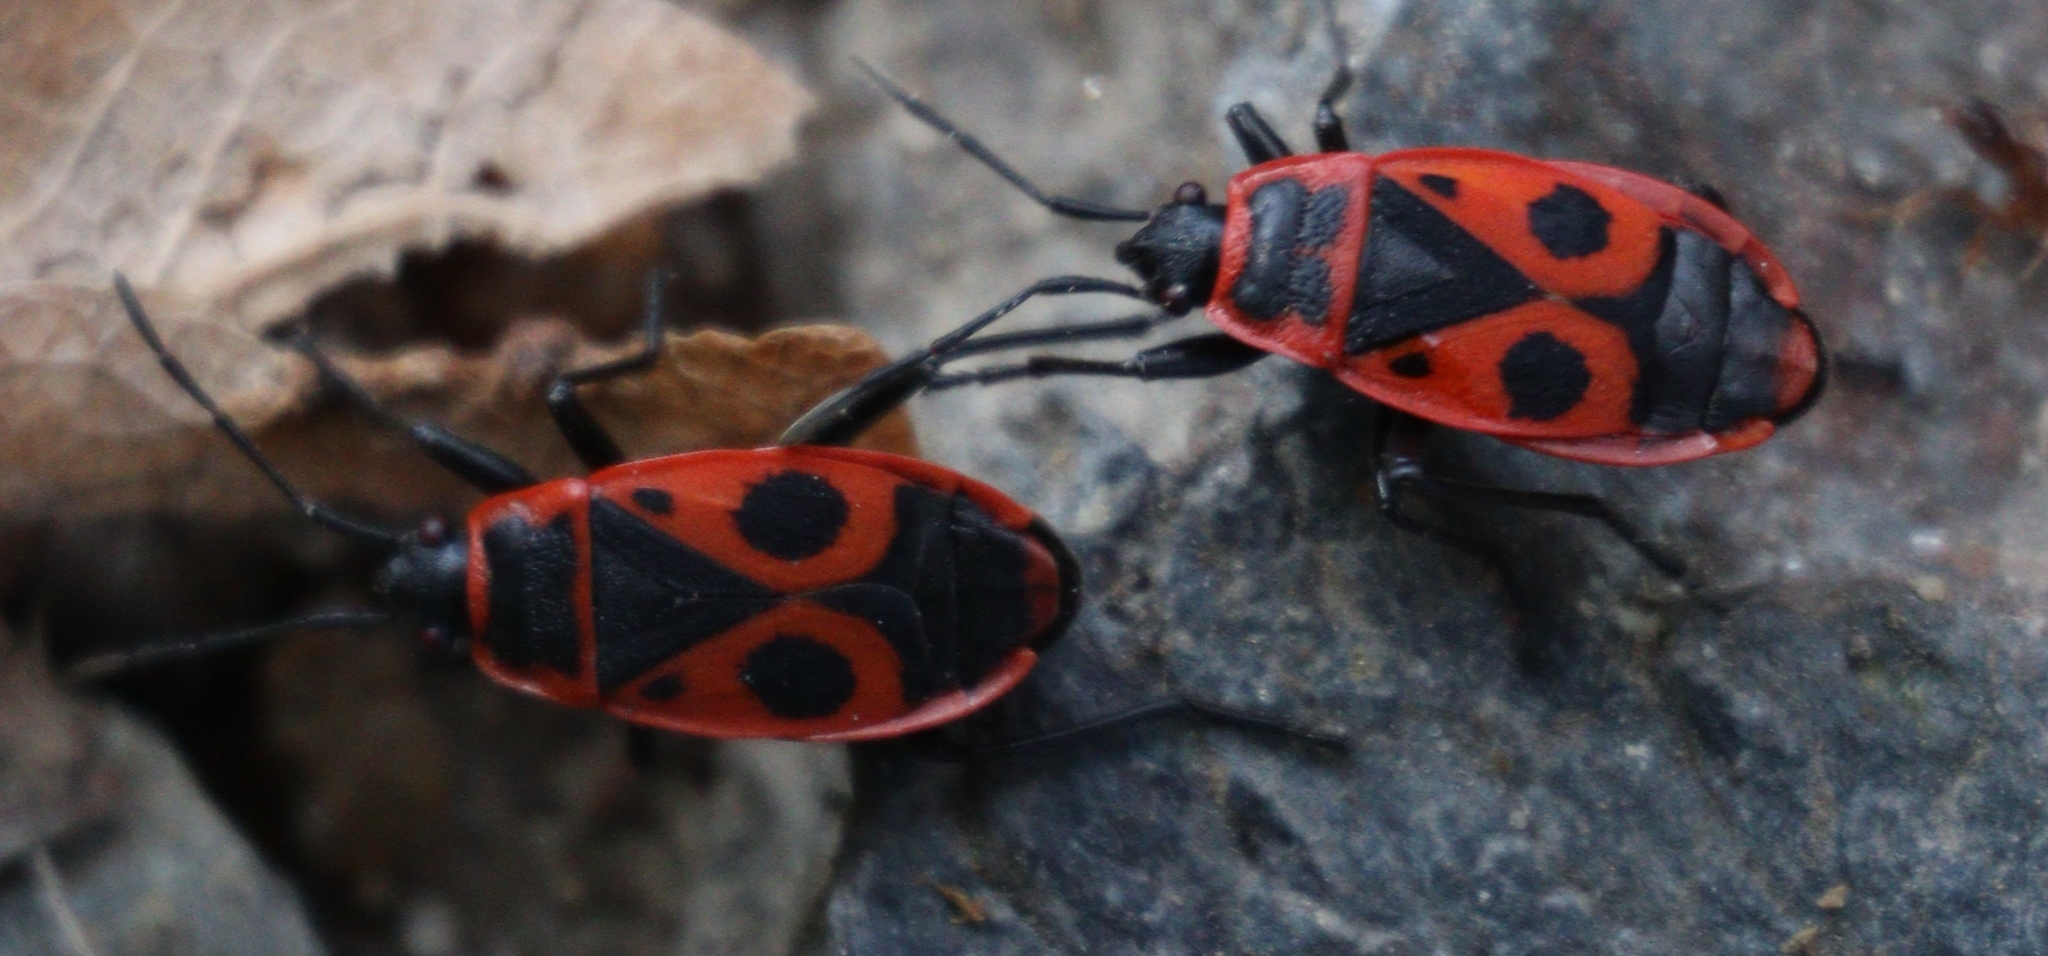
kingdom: Animalia
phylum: Arthropoda
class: Insecta
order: Hemiptera
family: Pyrrhocoridae
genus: Pyrrhocoris
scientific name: Pyrrhocoris apterus
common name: Firebug
